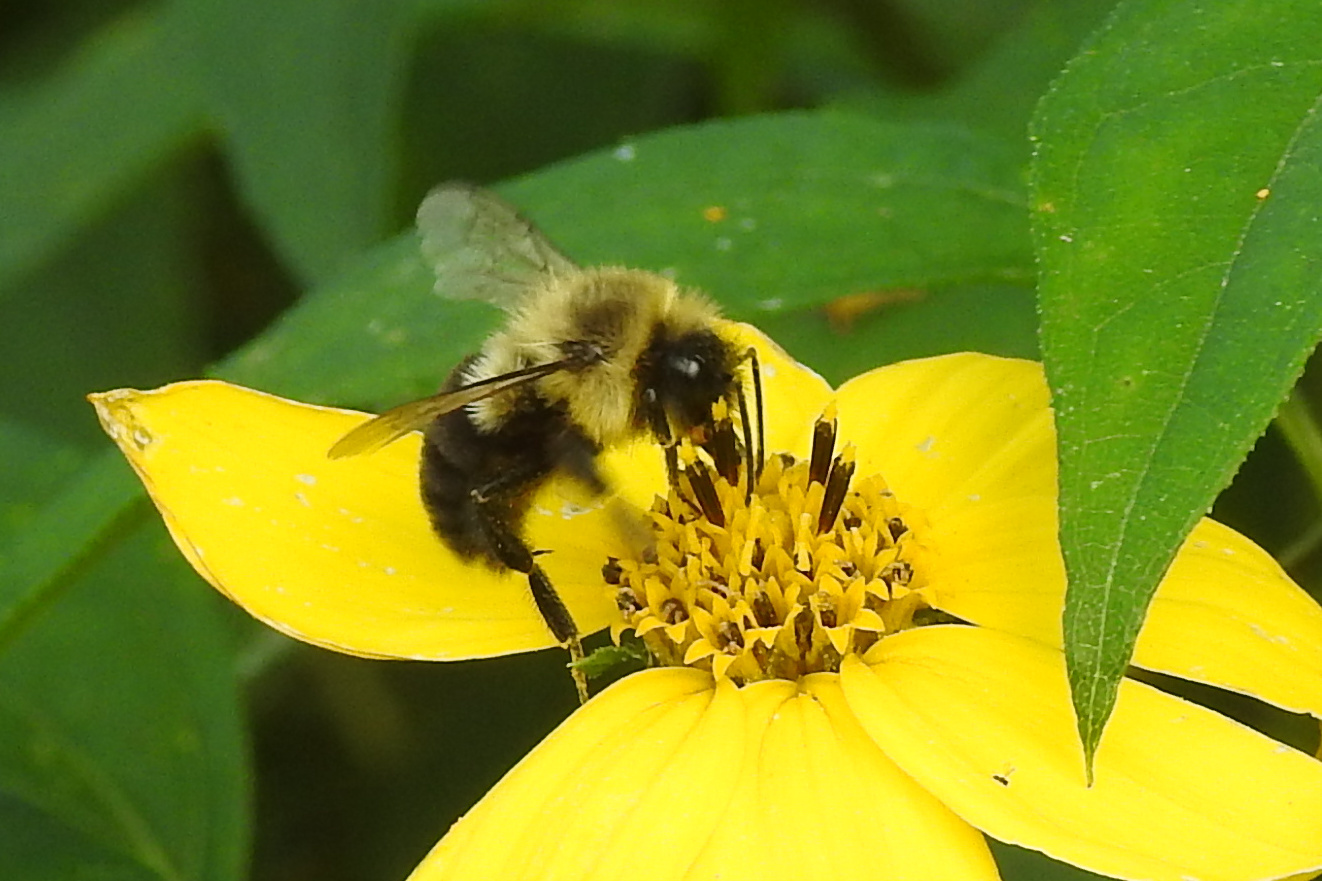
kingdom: Animalia
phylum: Arthropoda
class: Insecta
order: Hymenoptera
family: Apidae
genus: Bombus
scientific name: Bombus impatiens
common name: Common eastern bumble bee
